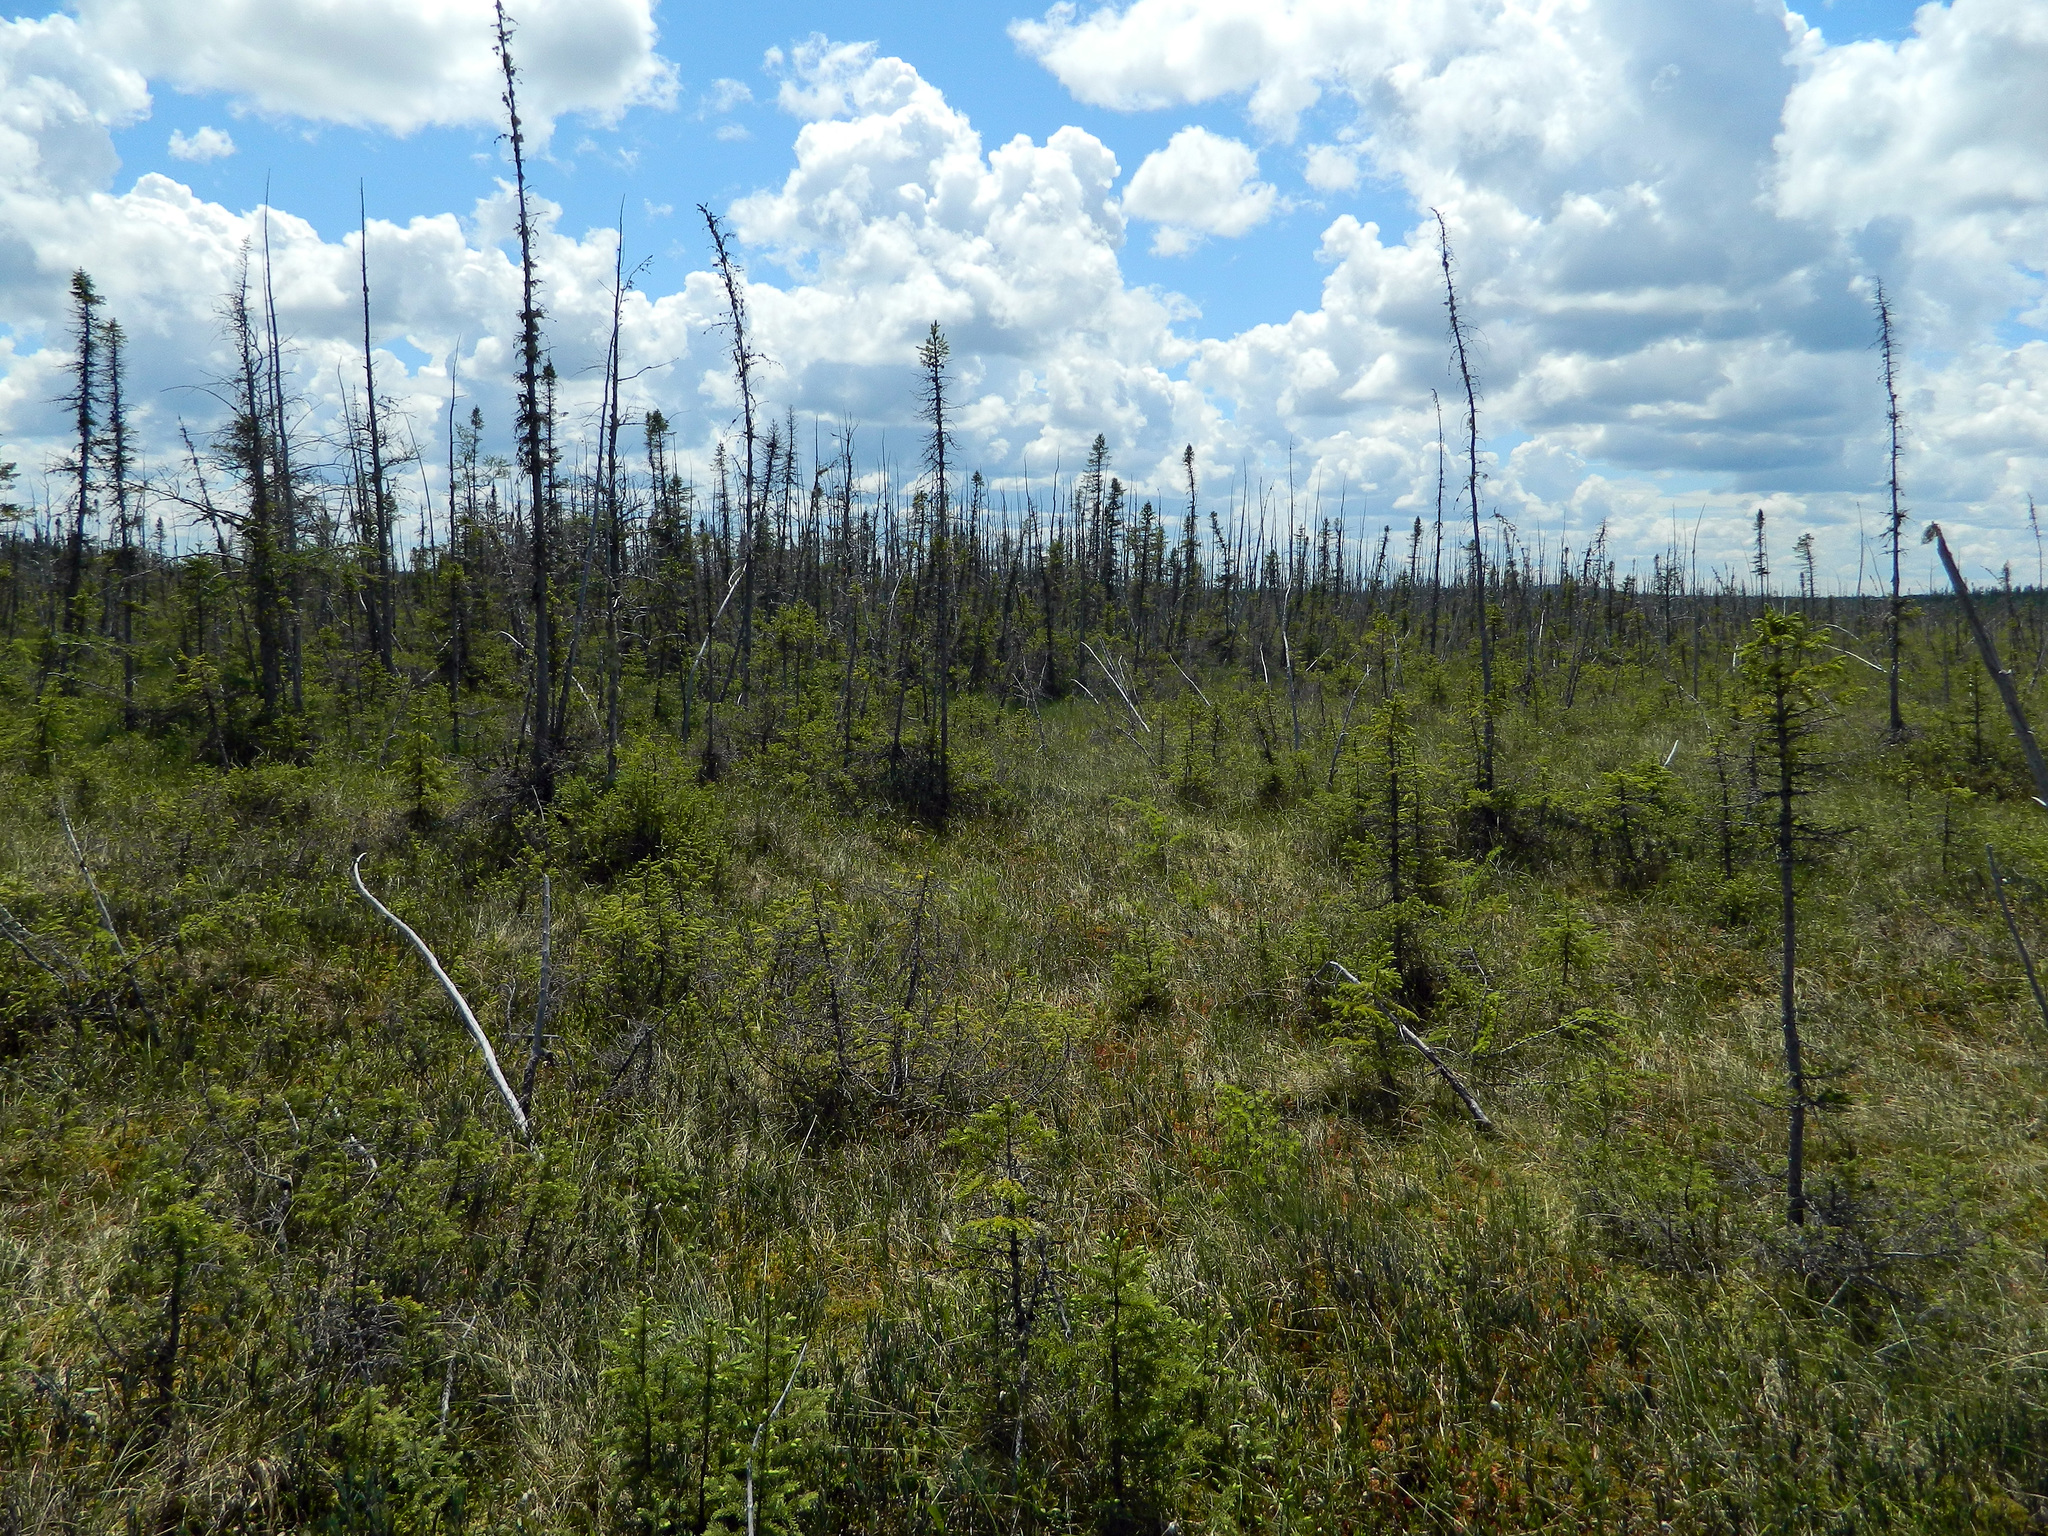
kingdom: Plantae
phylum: Tracheophyta
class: Pinopsida
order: Pinales
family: Pinaceae
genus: Picea
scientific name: Picea mariana
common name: Black spruce
